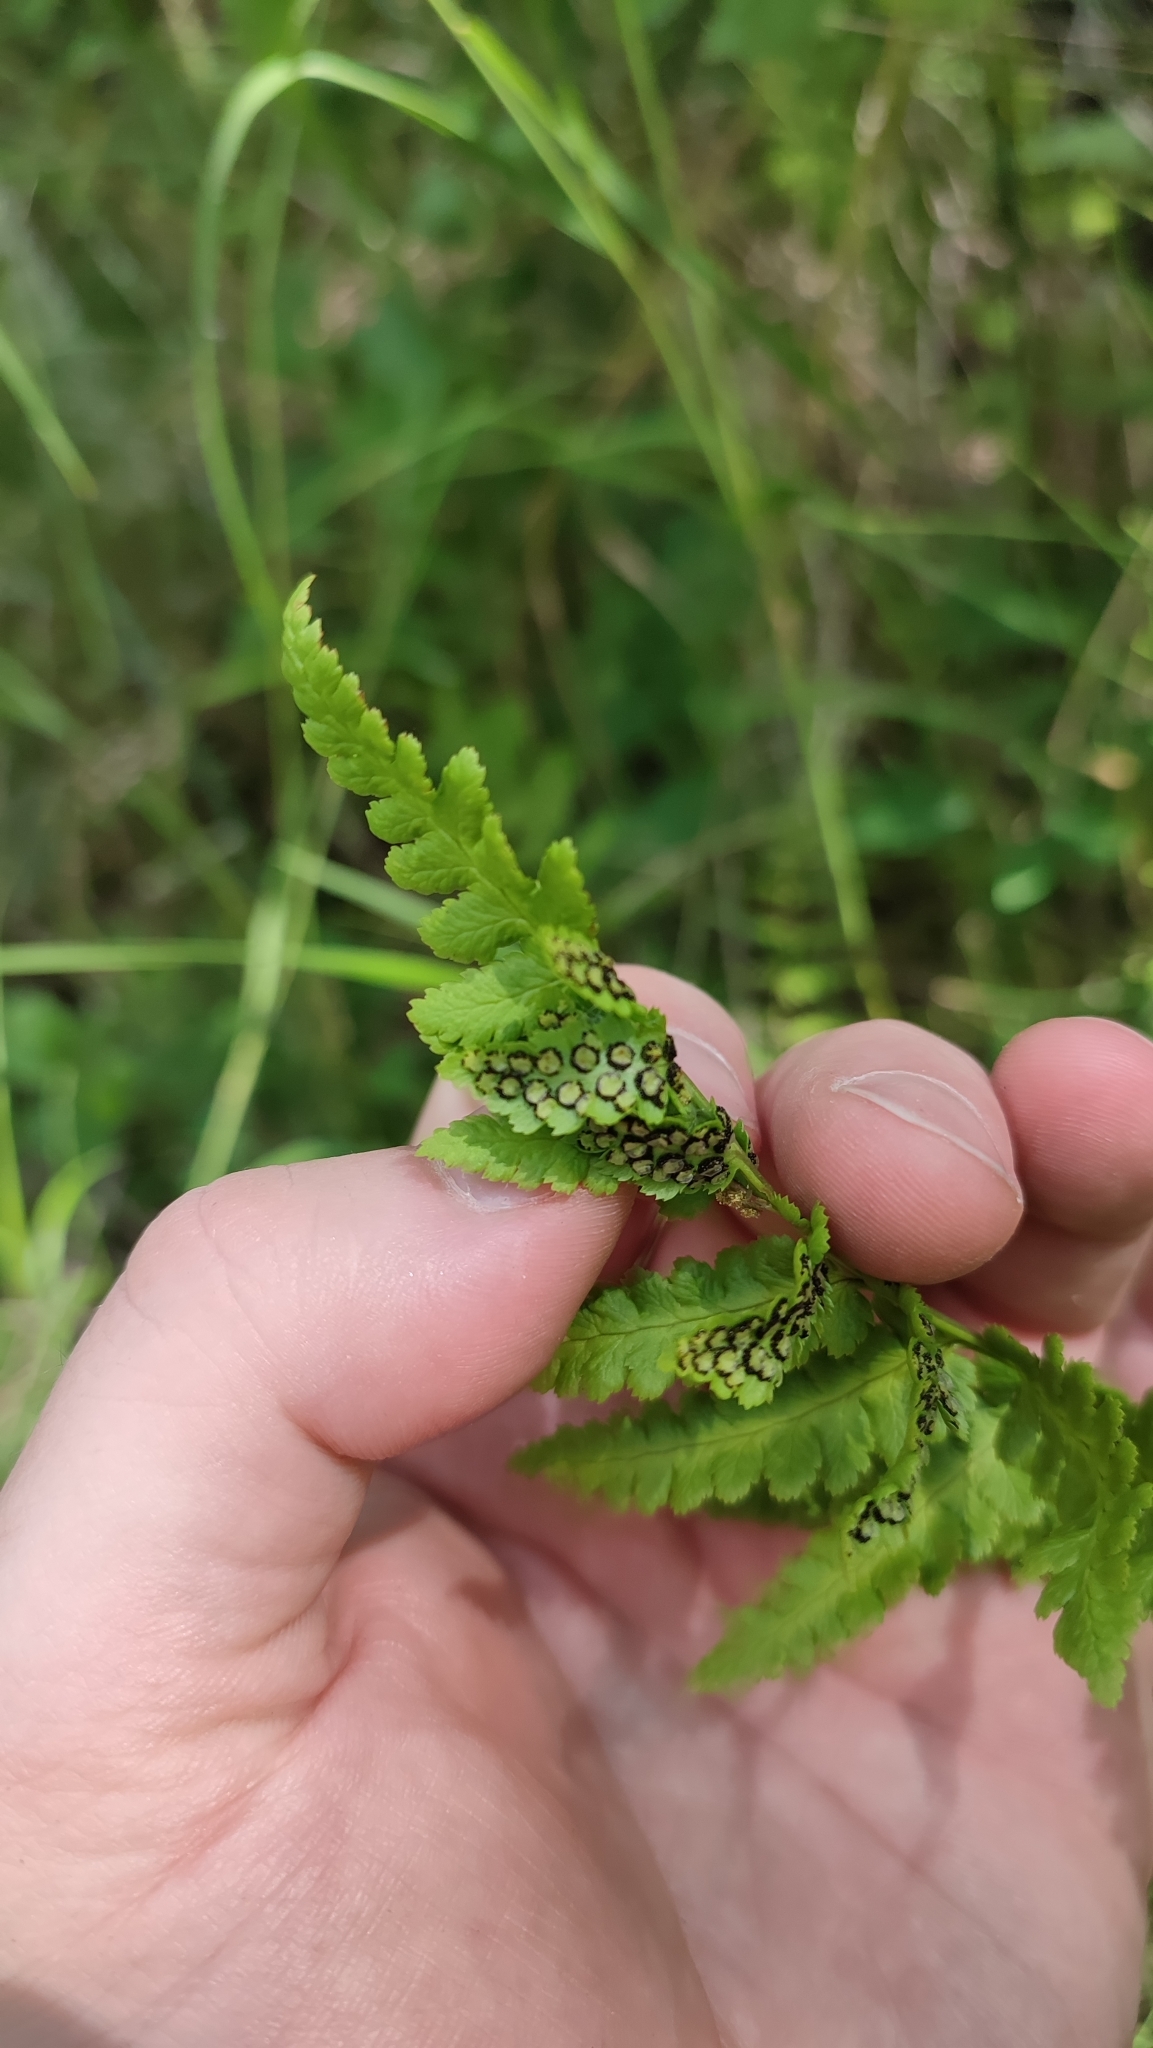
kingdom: Plantae
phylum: Tracheophyta
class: Polypodiopsida
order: Polypodiales
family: Dryopteridaceae
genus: Dryopteris
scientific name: Dryopteris cristata
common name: Crested wood fern
